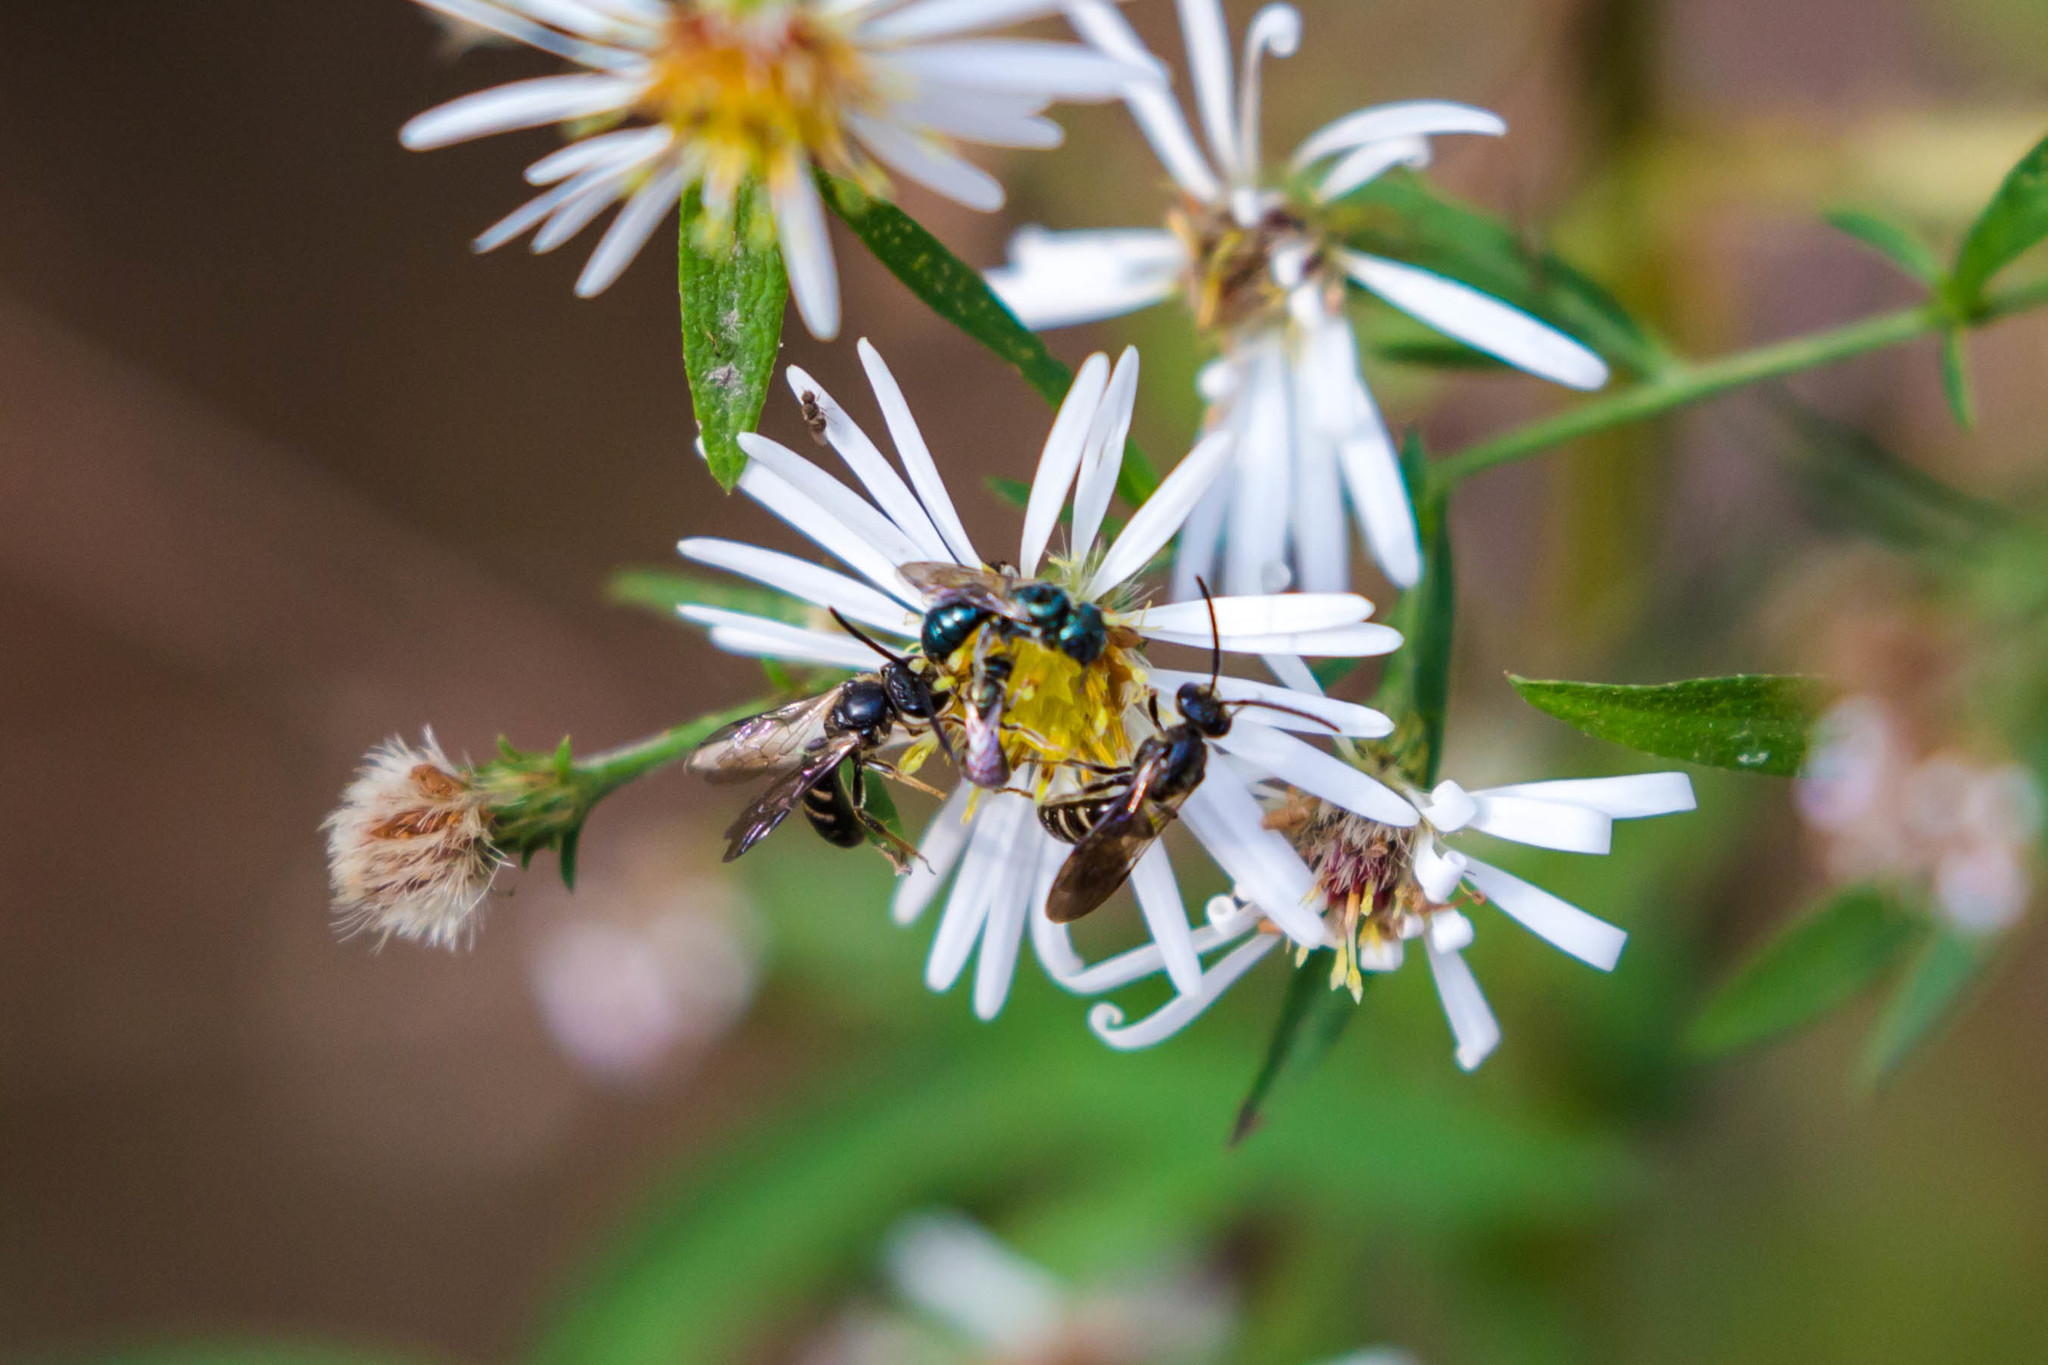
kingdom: Animalia
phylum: Arthropoda
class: Insecta
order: Hymenoptera
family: Halictidae
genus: Lasioglossum
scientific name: Lasioglossum fuscipenne
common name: Brown-winged sweat bee
